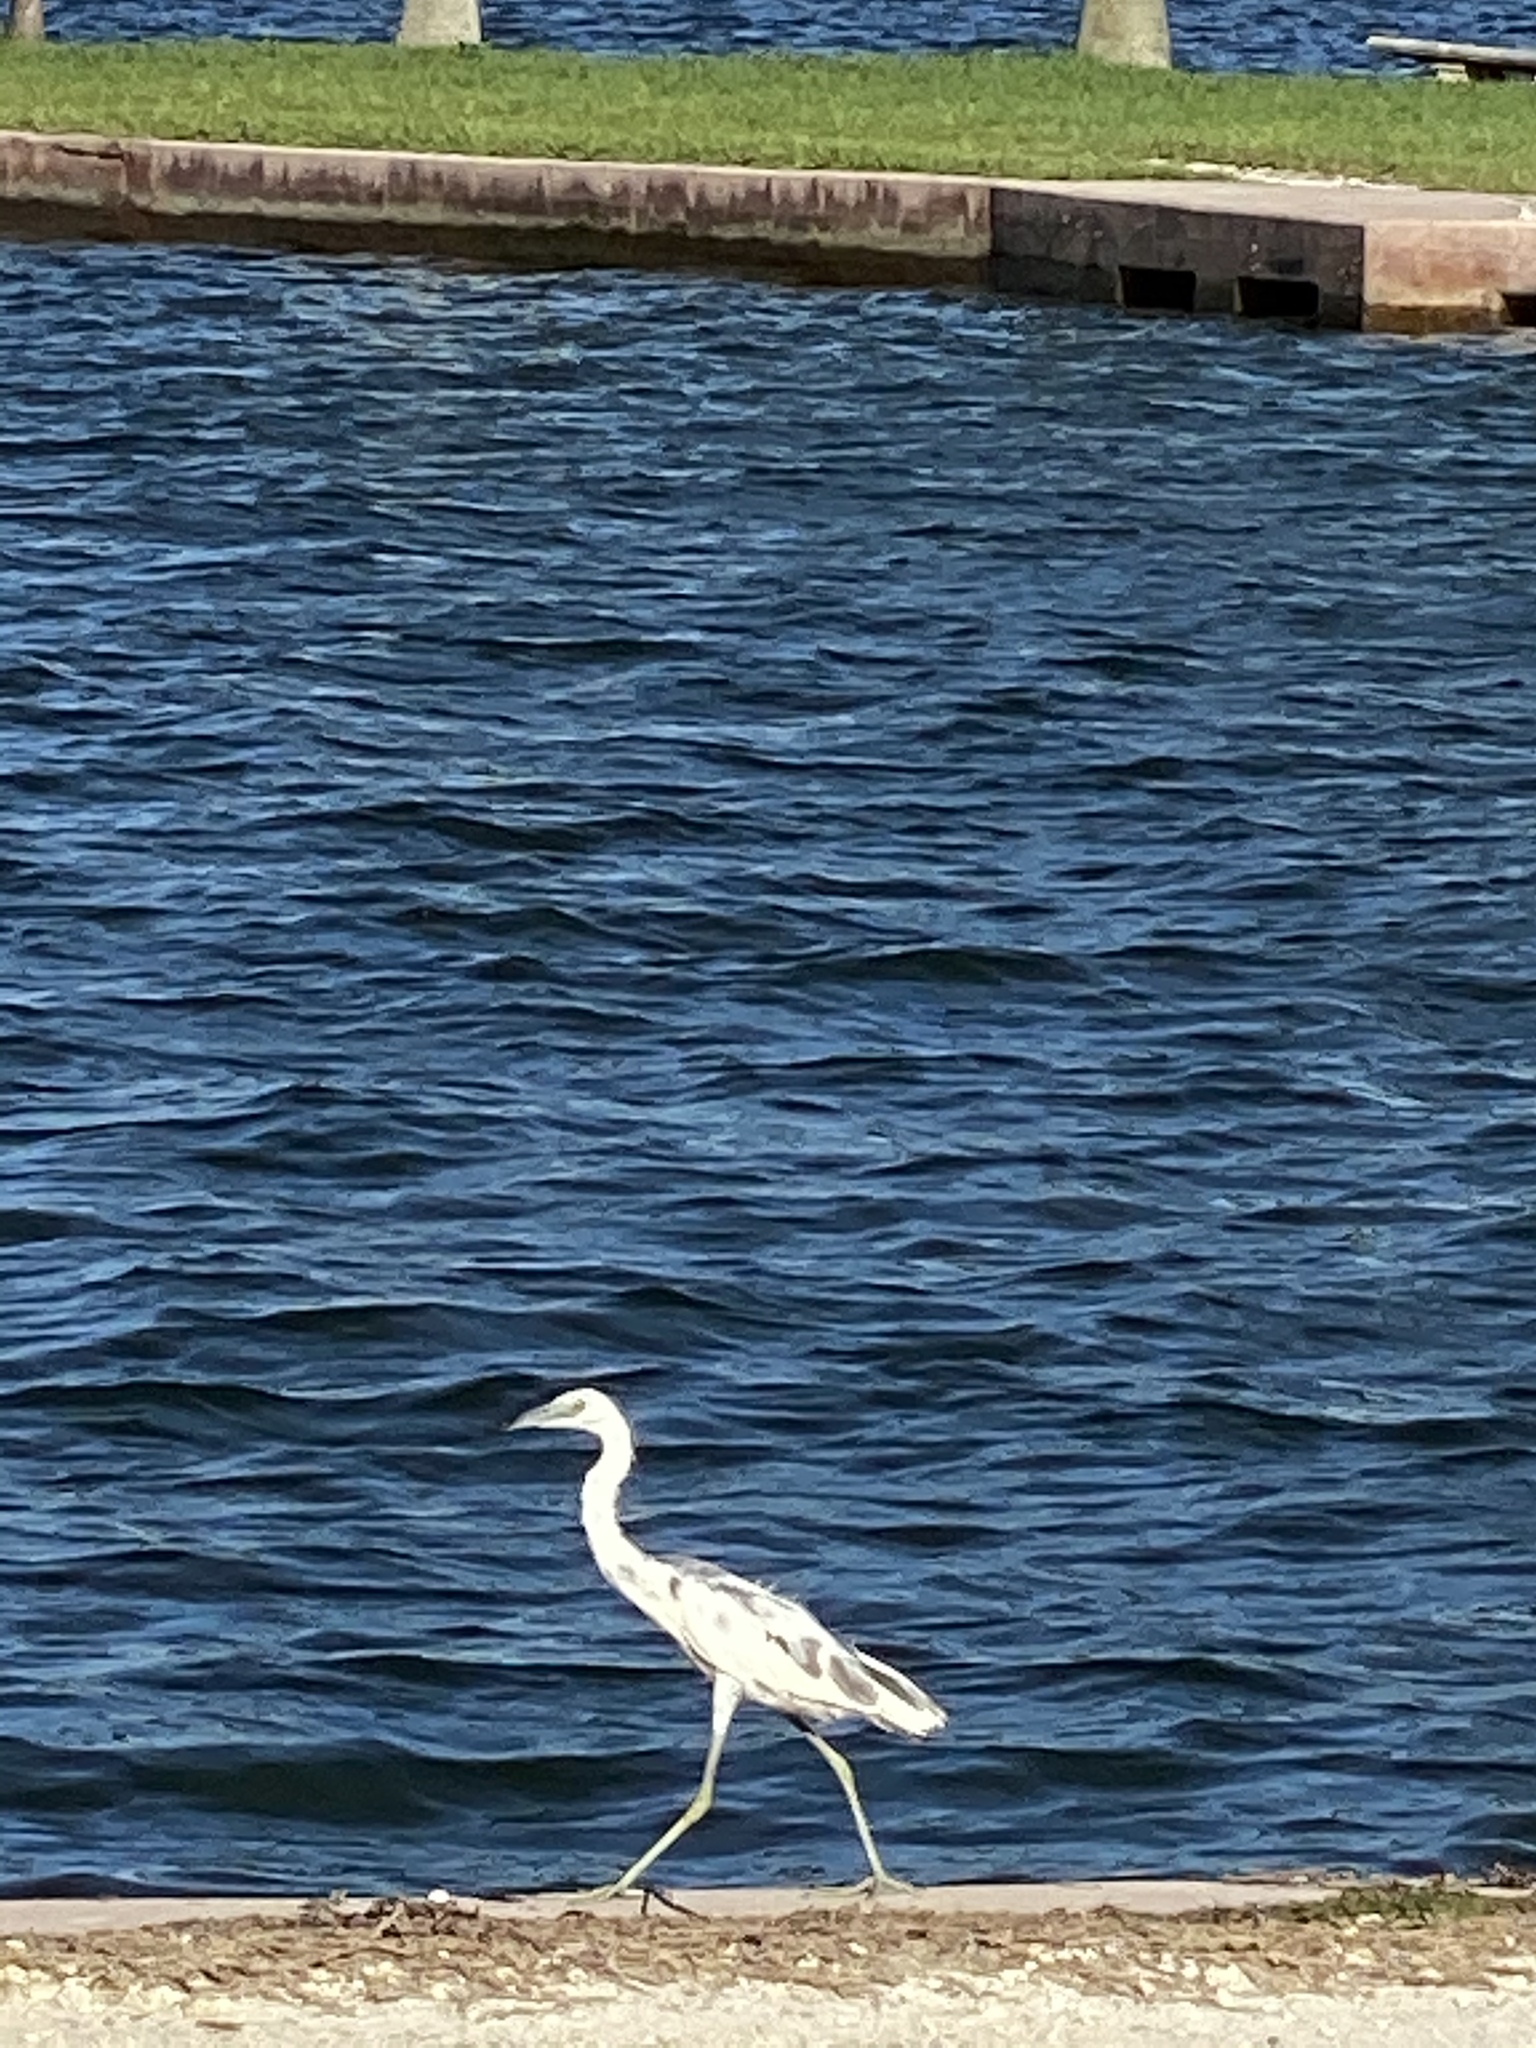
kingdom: Animalia
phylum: Chordata
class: Aves
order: Pelecaniformes
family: Ardeidae
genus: Egretta
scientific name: Egretta caerulea
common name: Little blue heron
